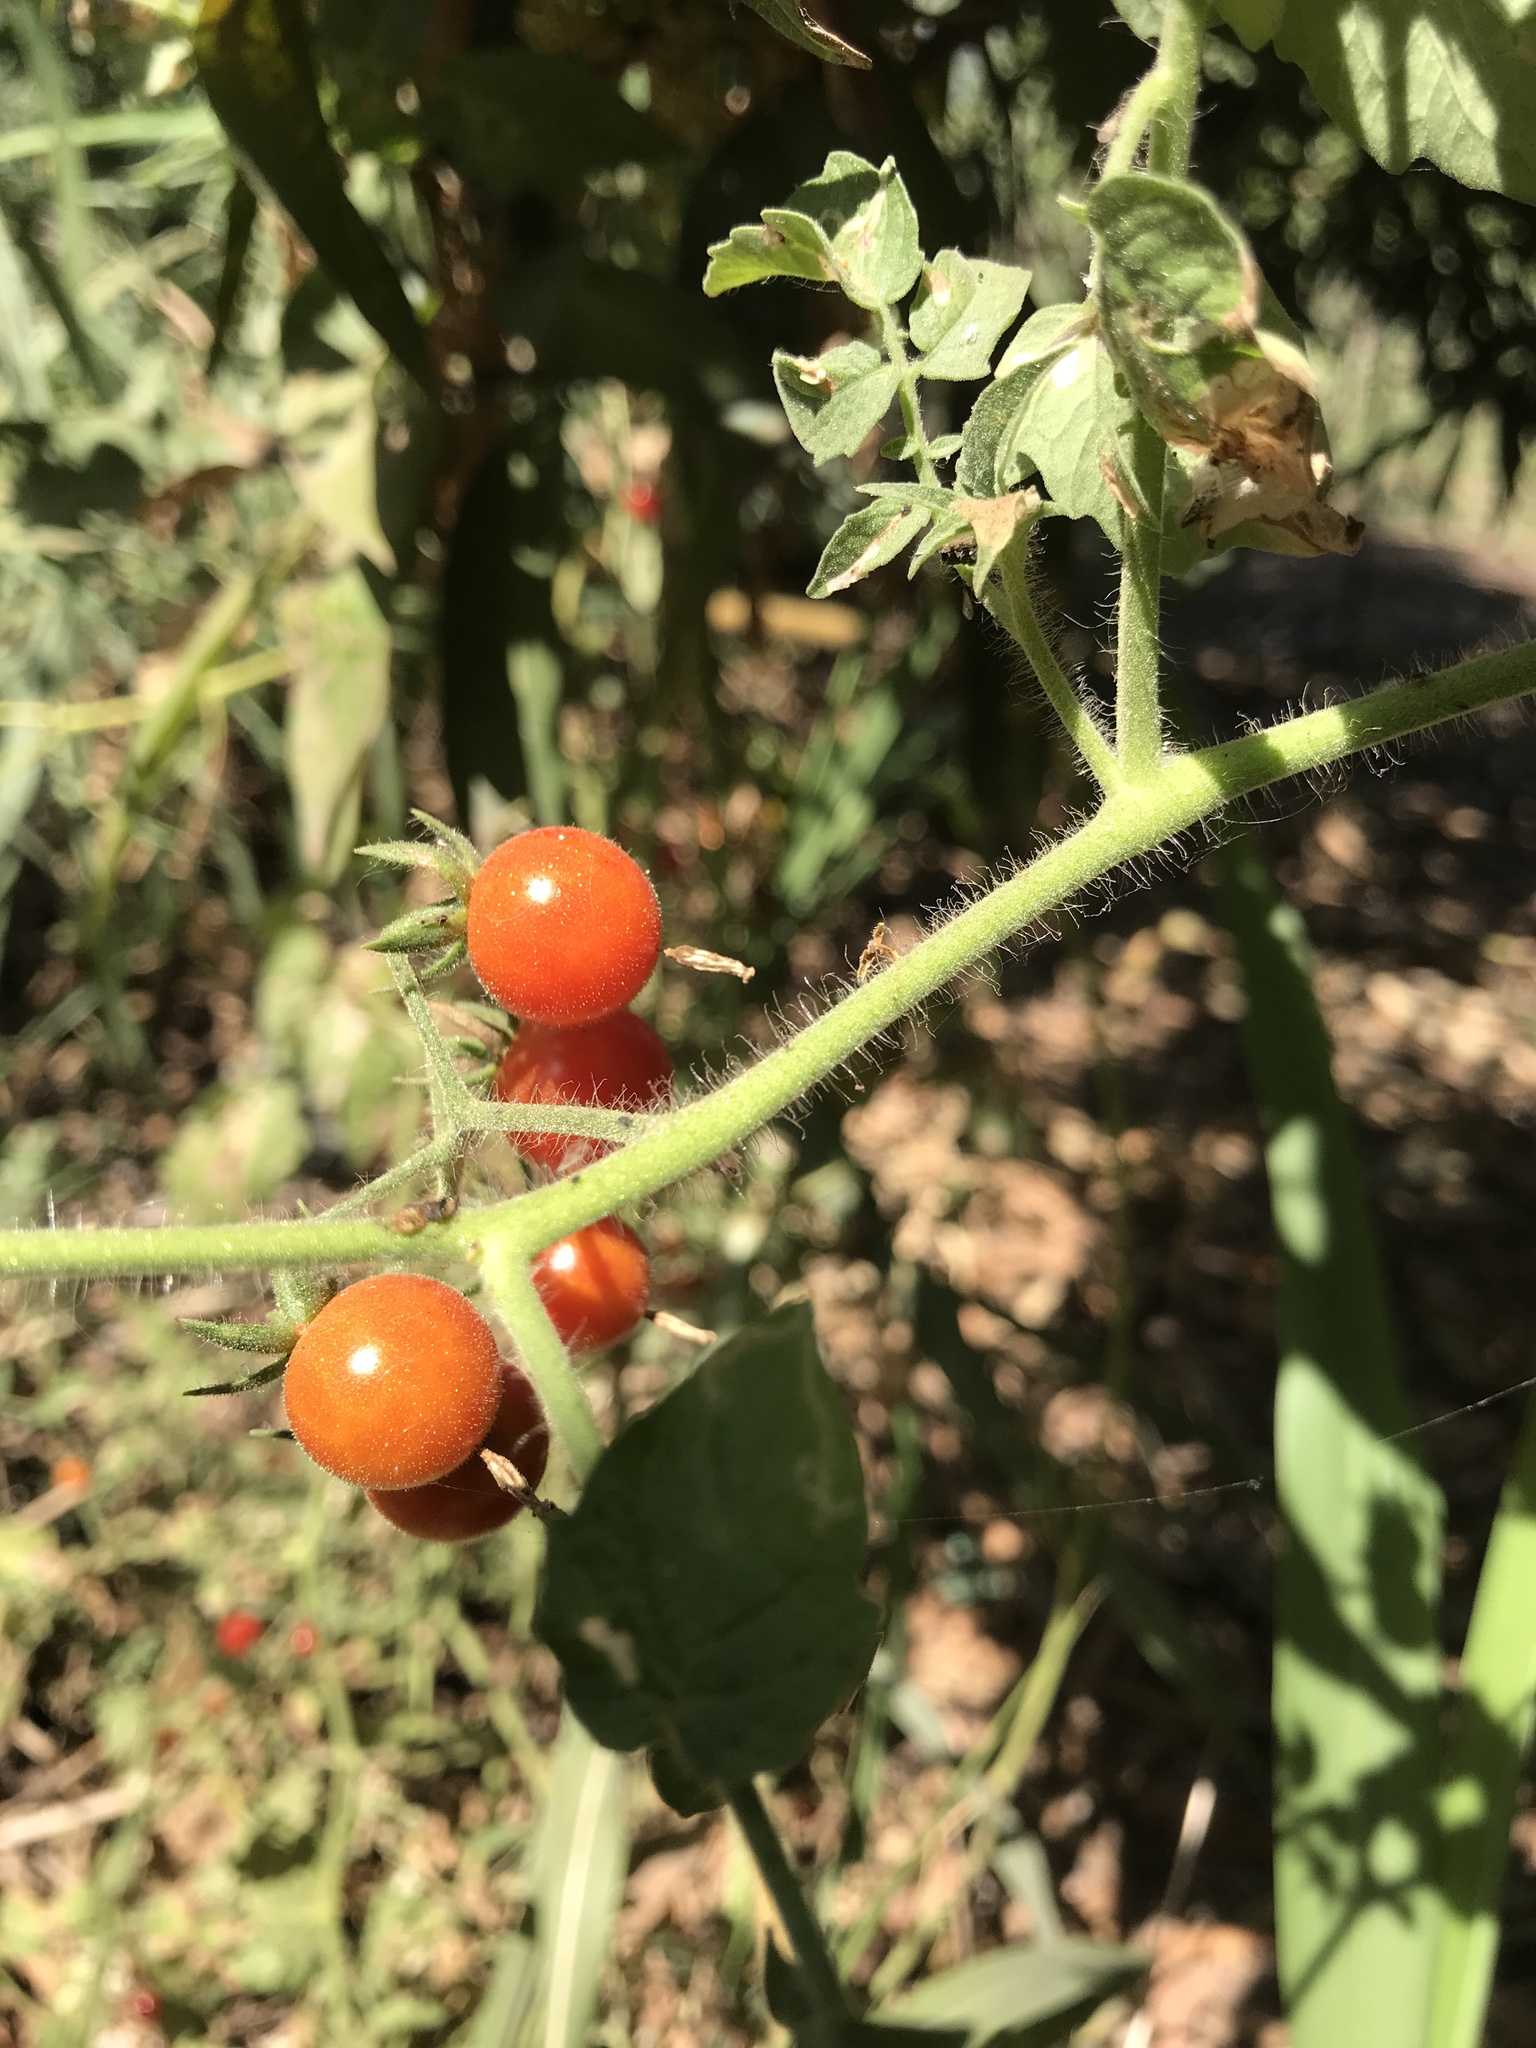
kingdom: Plantae
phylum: Tracheophyta
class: Magnoliopsida
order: Solanales
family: Solanaceae
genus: Solanum
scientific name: Solanum lycopersicum
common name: Garden tomato
